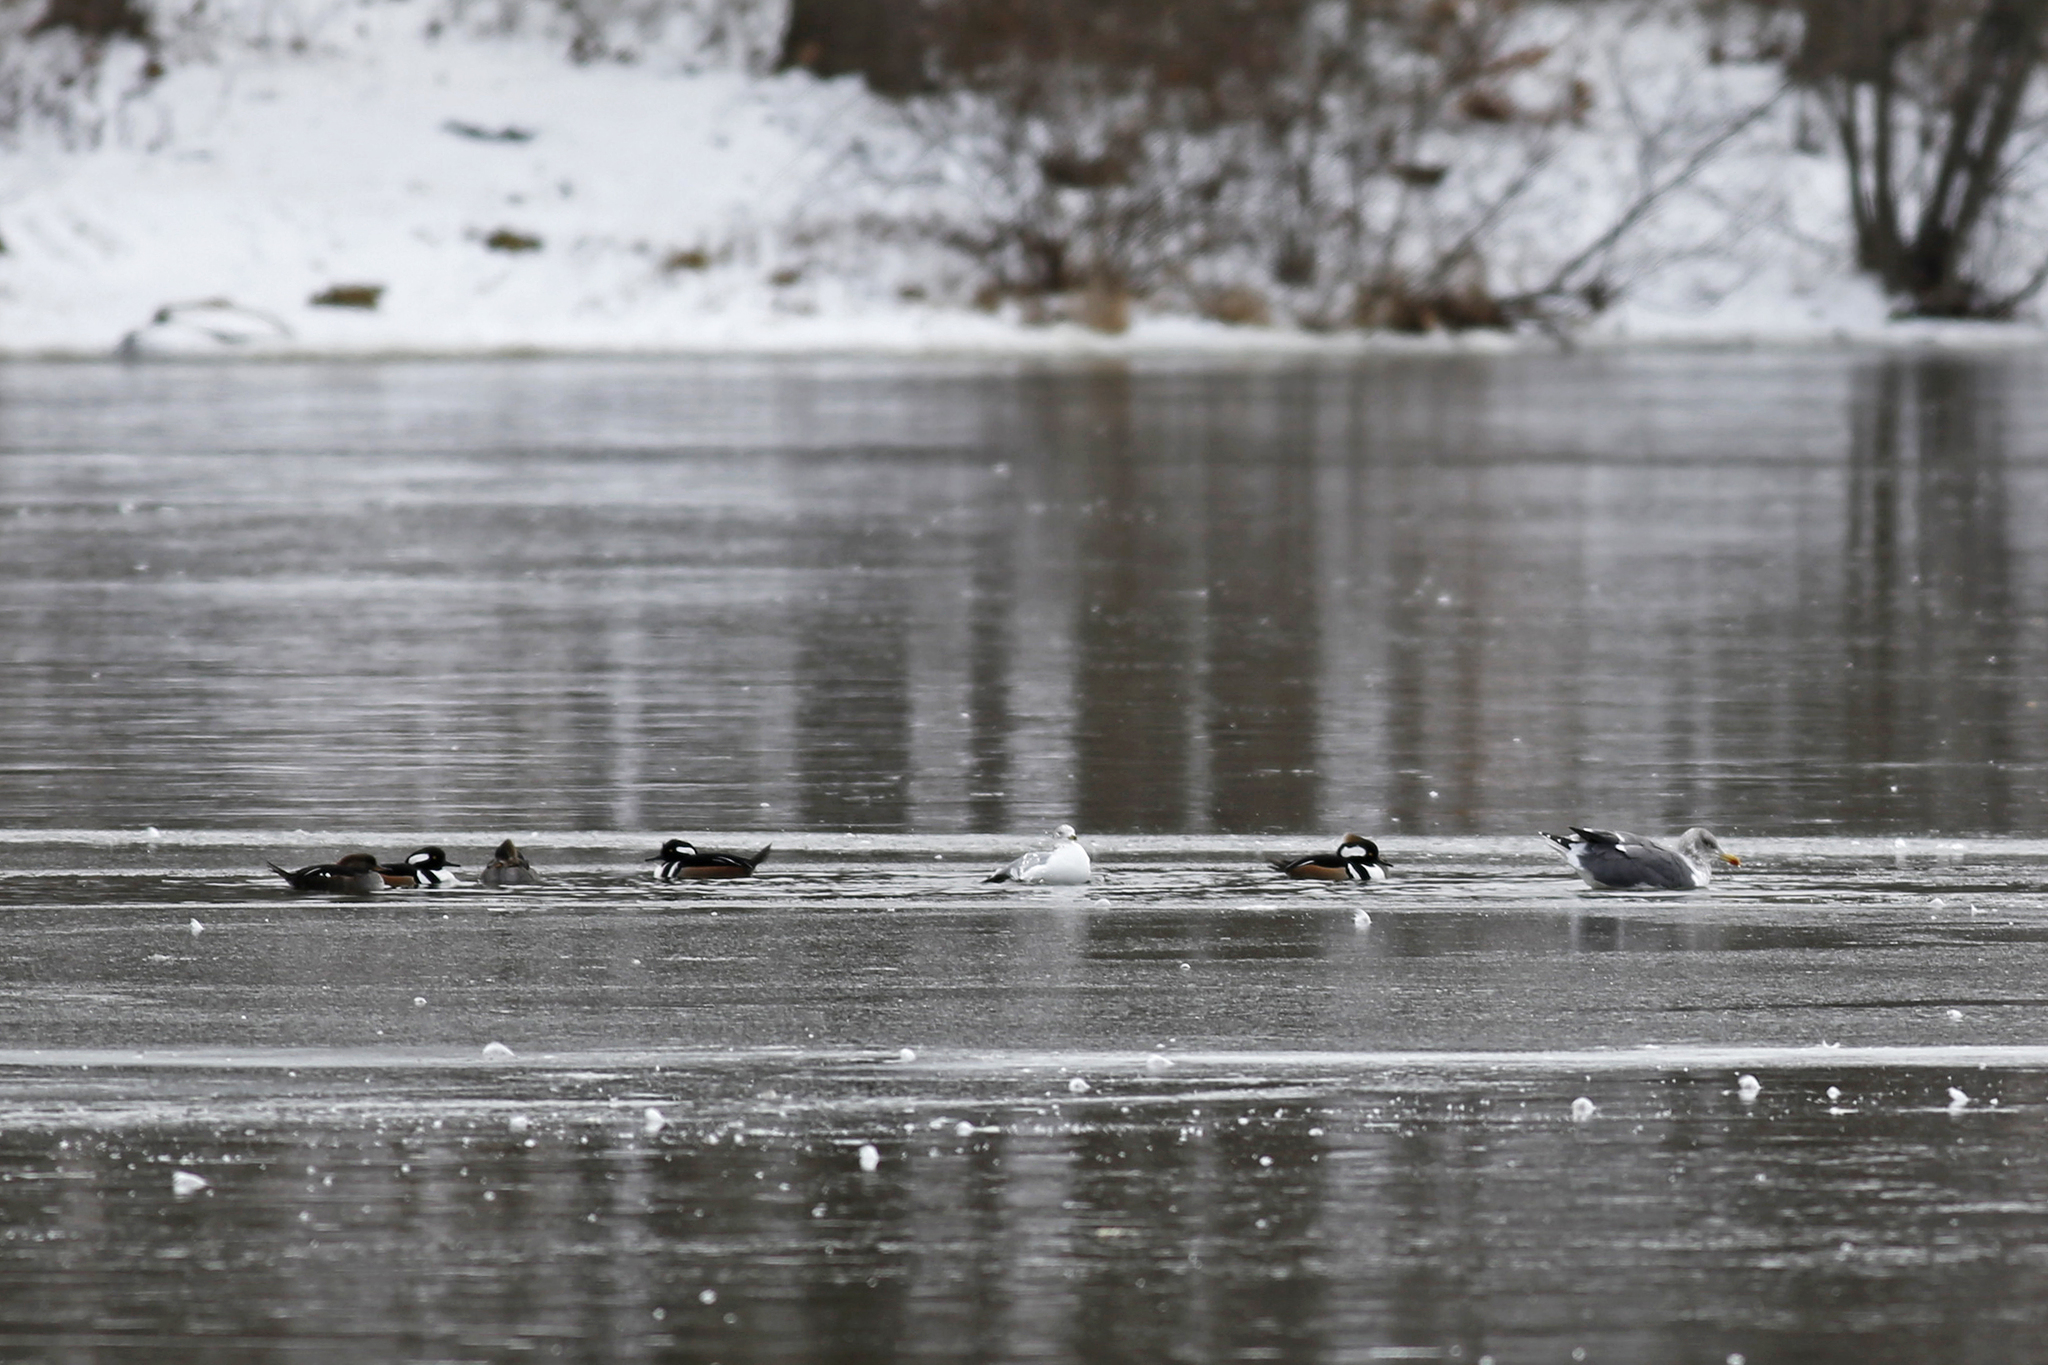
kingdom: Animalia
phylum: Chordata
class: Aves
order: Anseriformes
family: Anatidae
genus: Lophodytes
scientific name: Lophodytes cucullatus
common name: Hooded merganser
